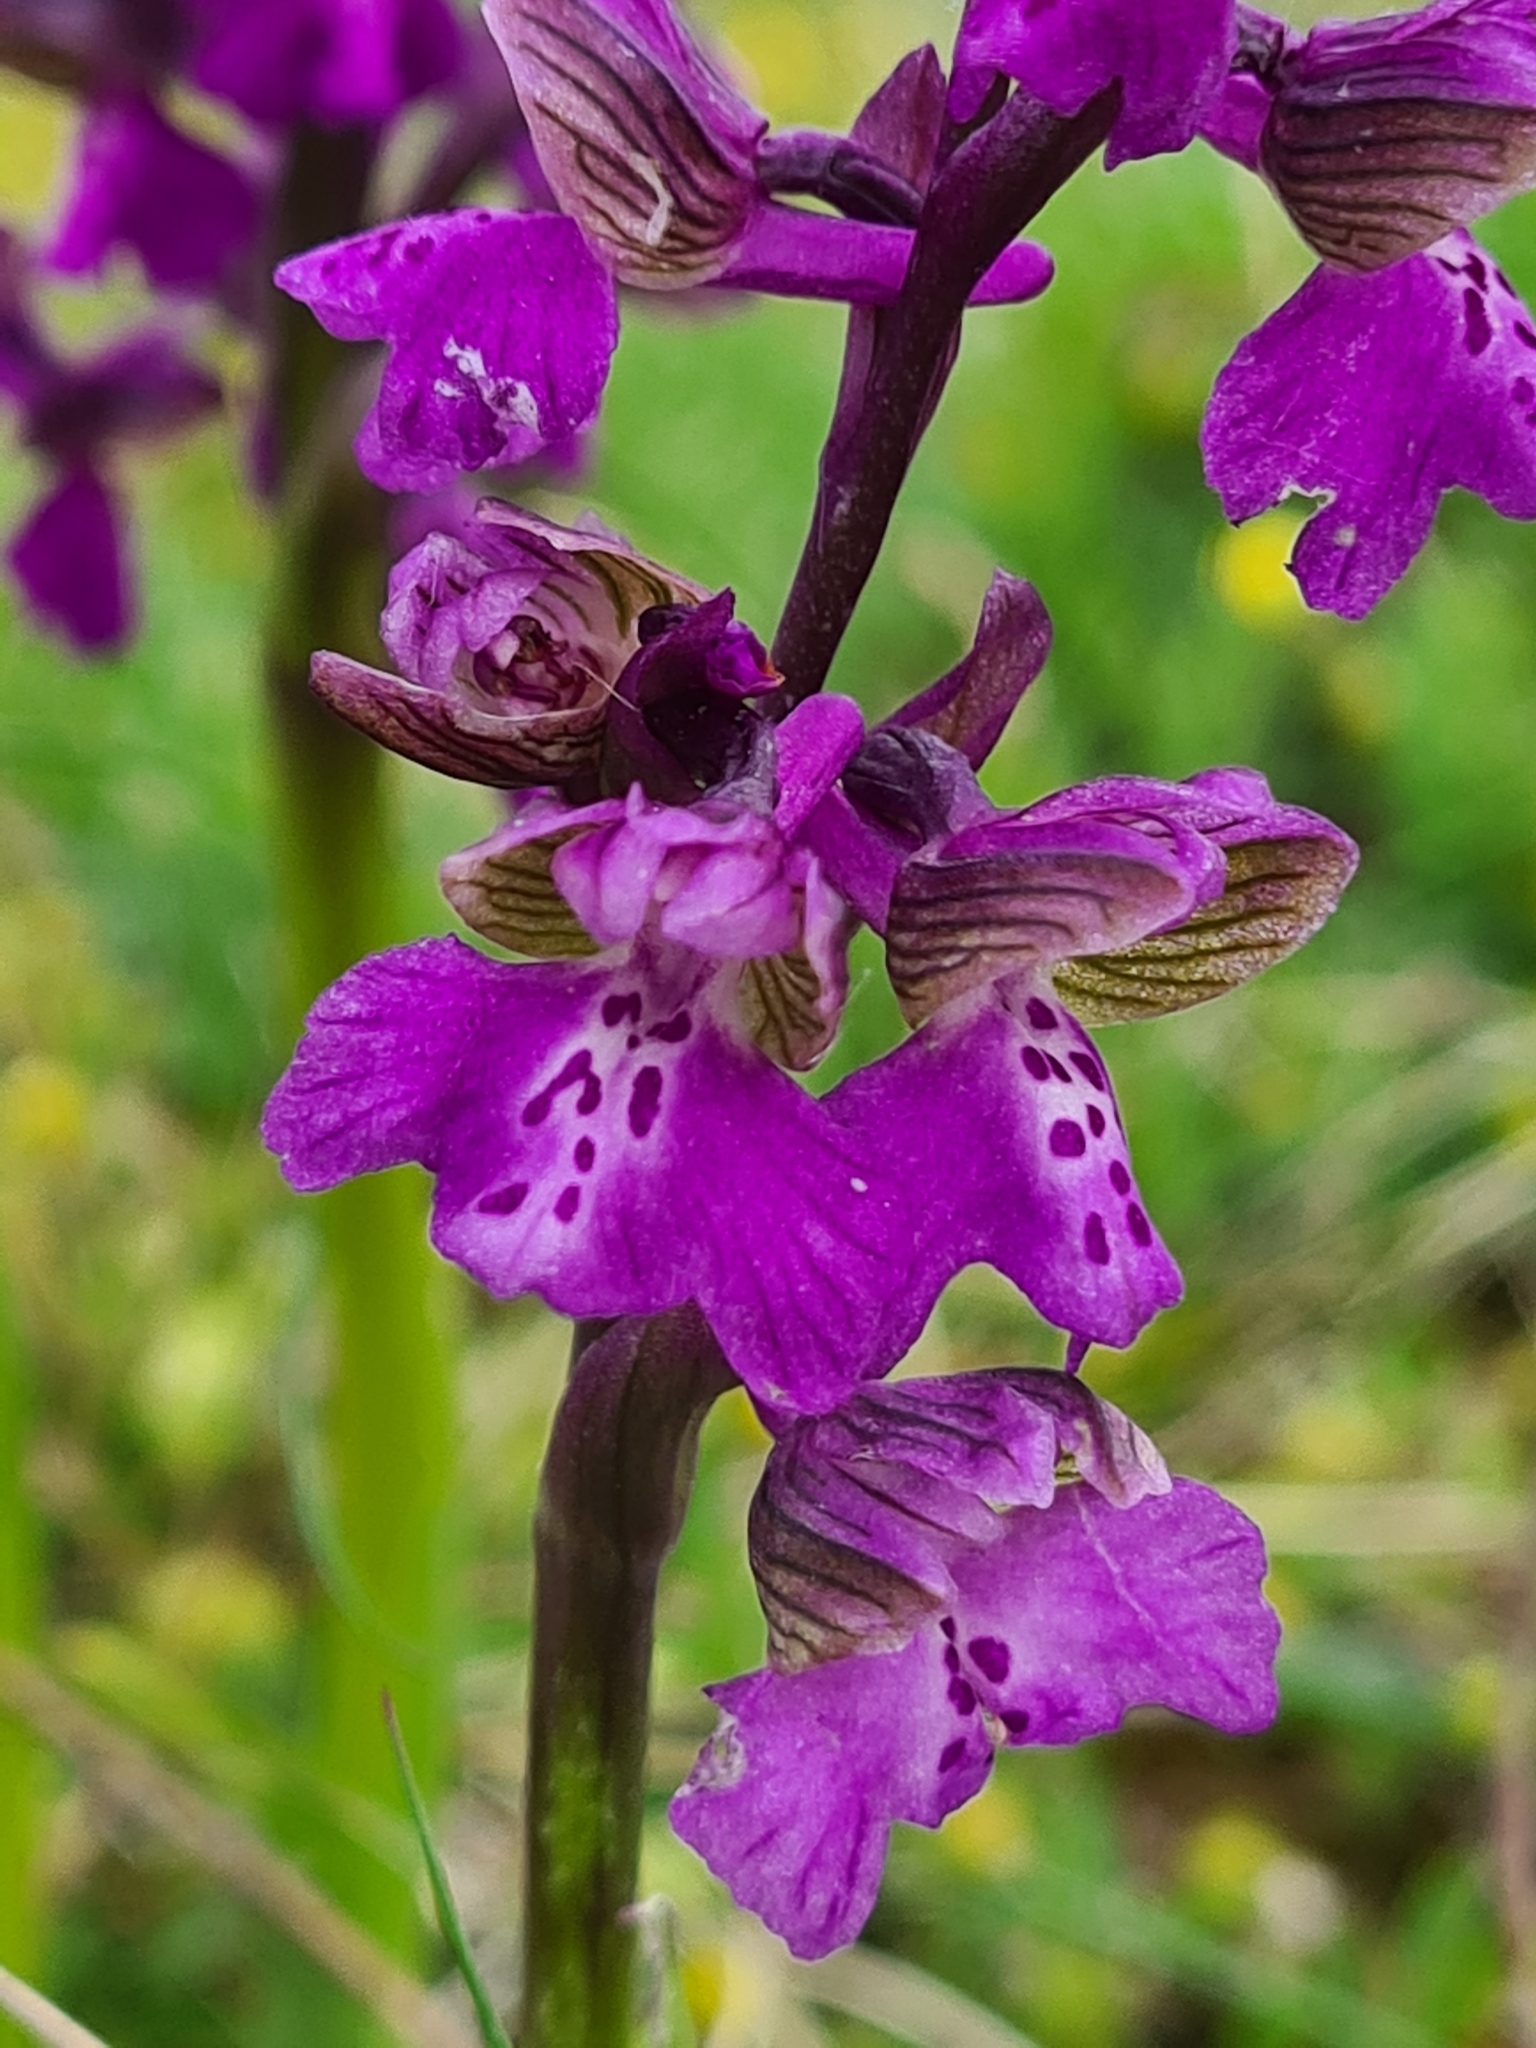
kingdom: Plantae
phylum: Tracheophyta
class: Liliopsida
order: Asparagales
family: Orchidaceae
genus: Anacamptis
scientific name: Anacamptis morio
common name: Green-winged orchid
